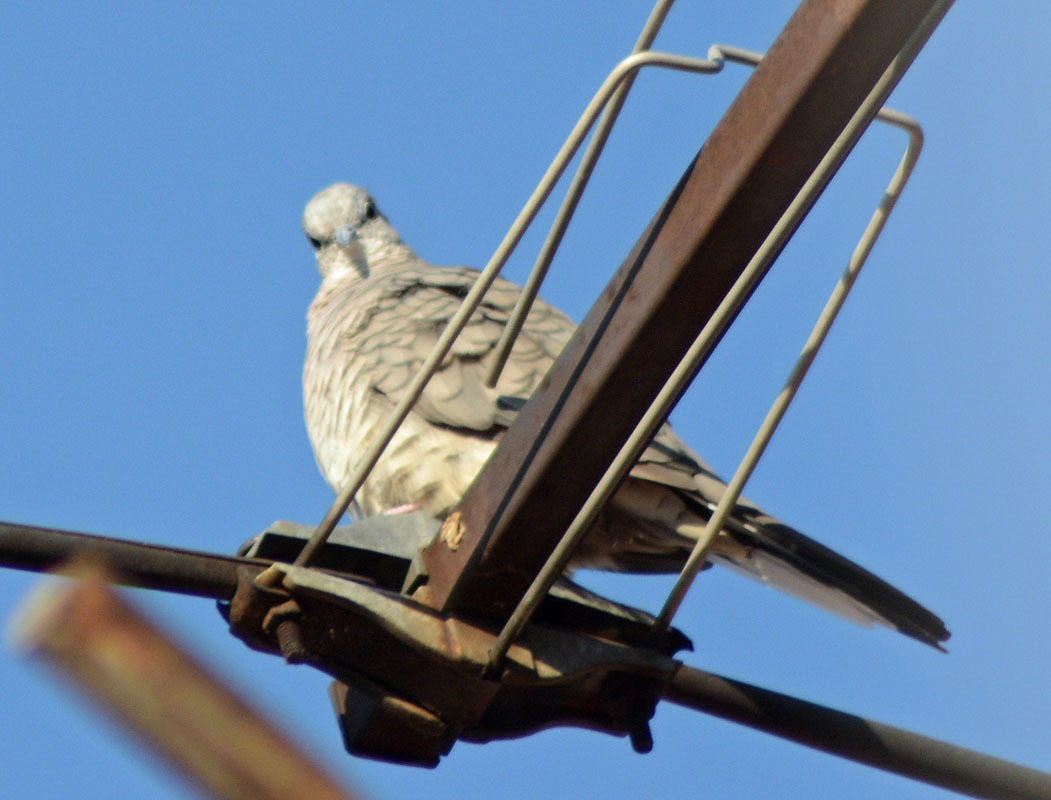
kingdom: Animalia
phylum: Chordata
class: Aves
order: Columbiformes
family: Columbidae
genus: Columbina
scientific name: Columbina inca
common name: Inca dove
